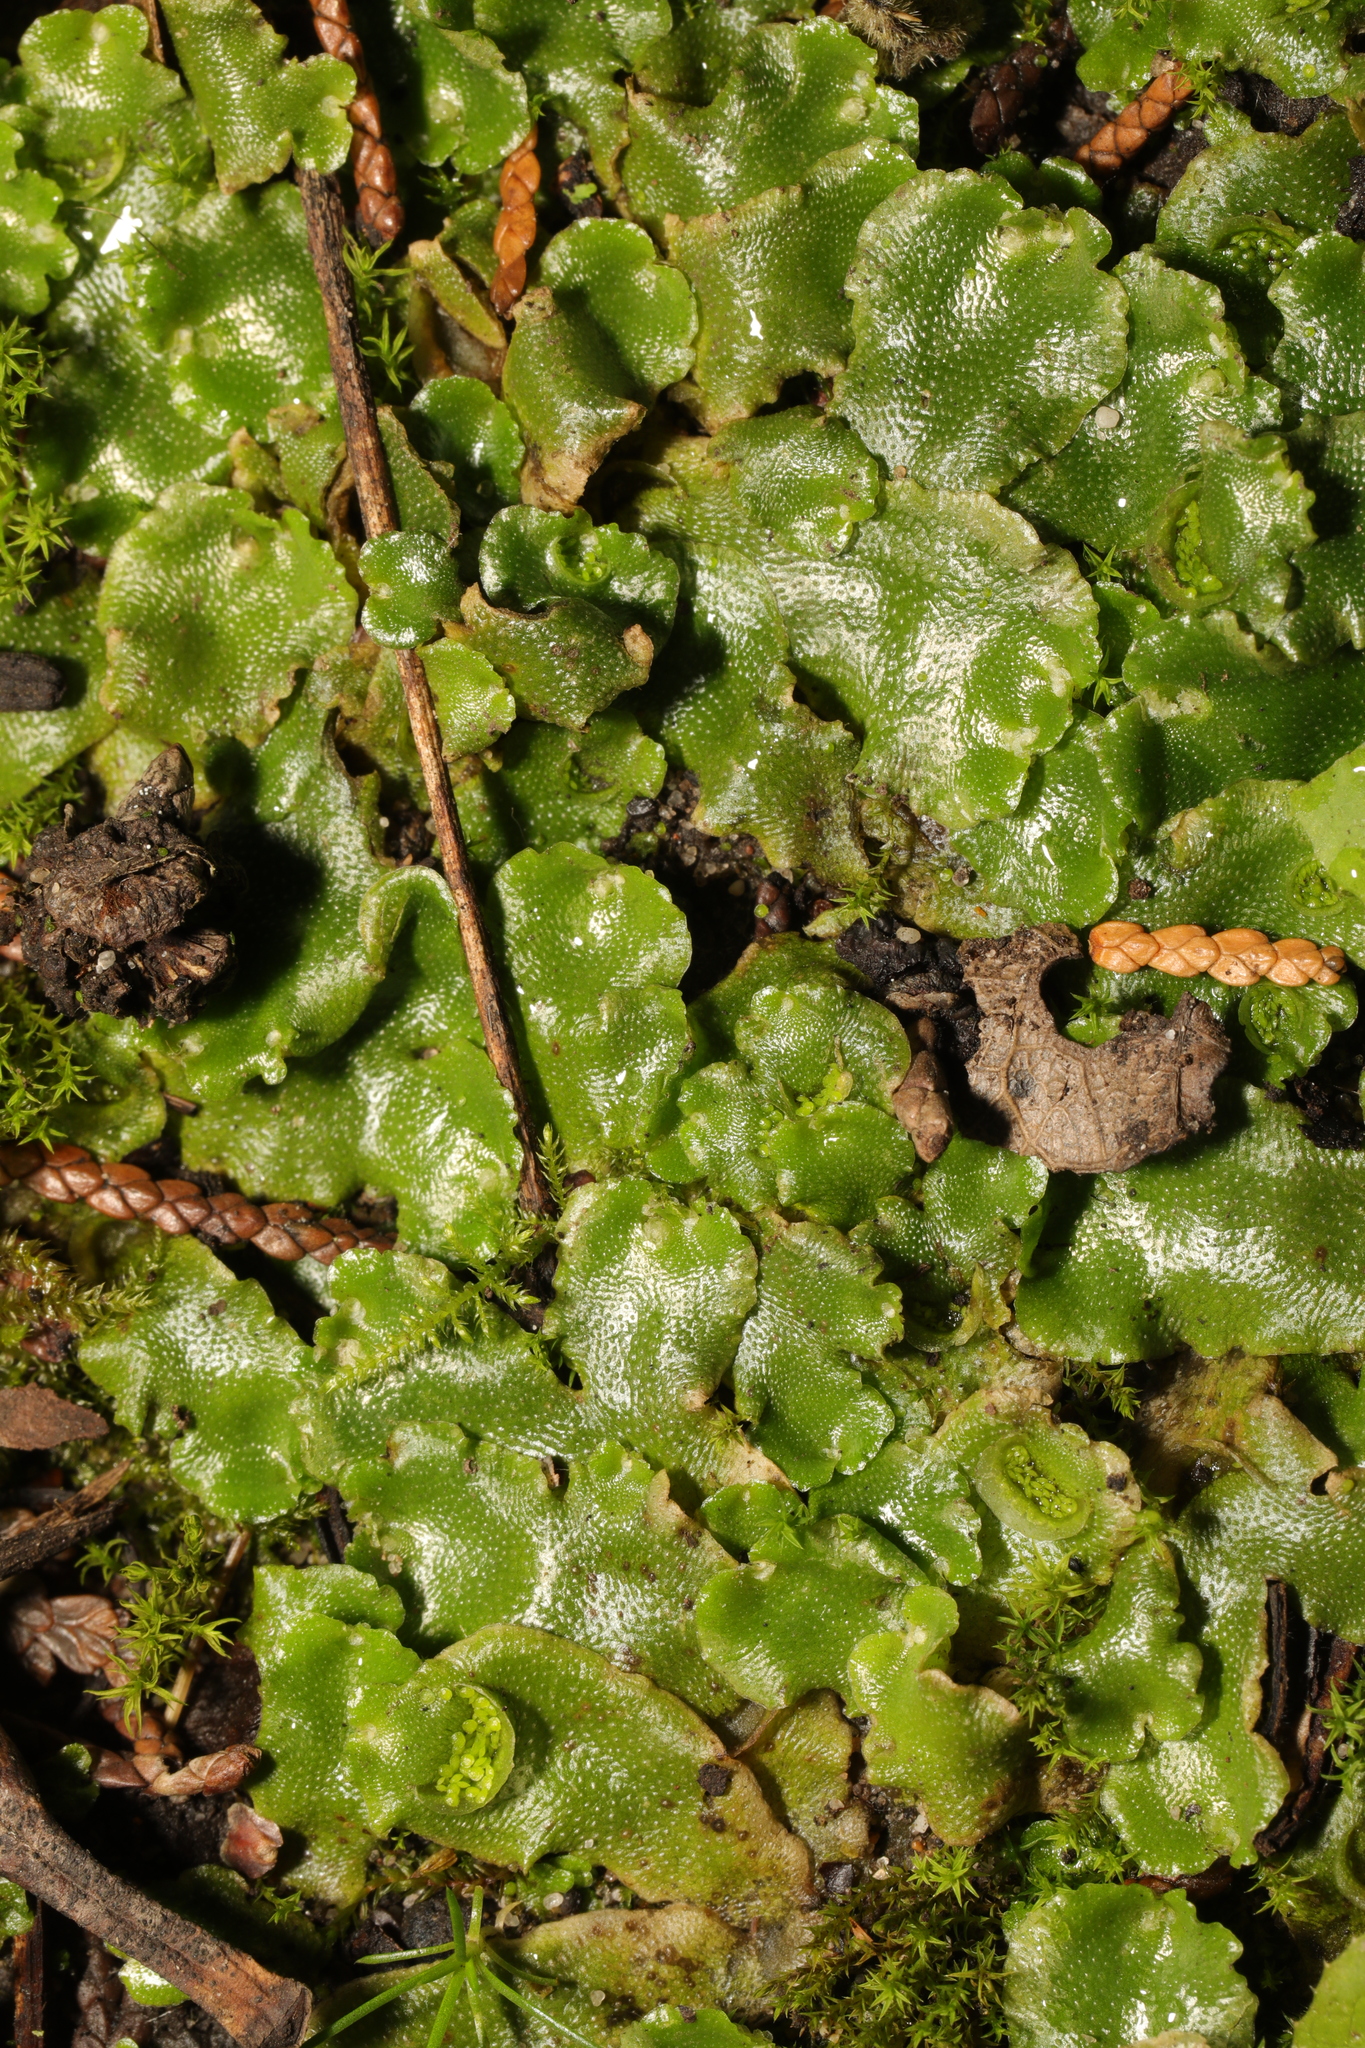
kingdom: Plantae
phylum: Marchantiophyta
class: Marchantiopsida
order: Lunulariales
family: Lunulariaceae
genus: Lunularia
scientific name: Lunularia cruciata
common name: Crescent-cup liverwort
